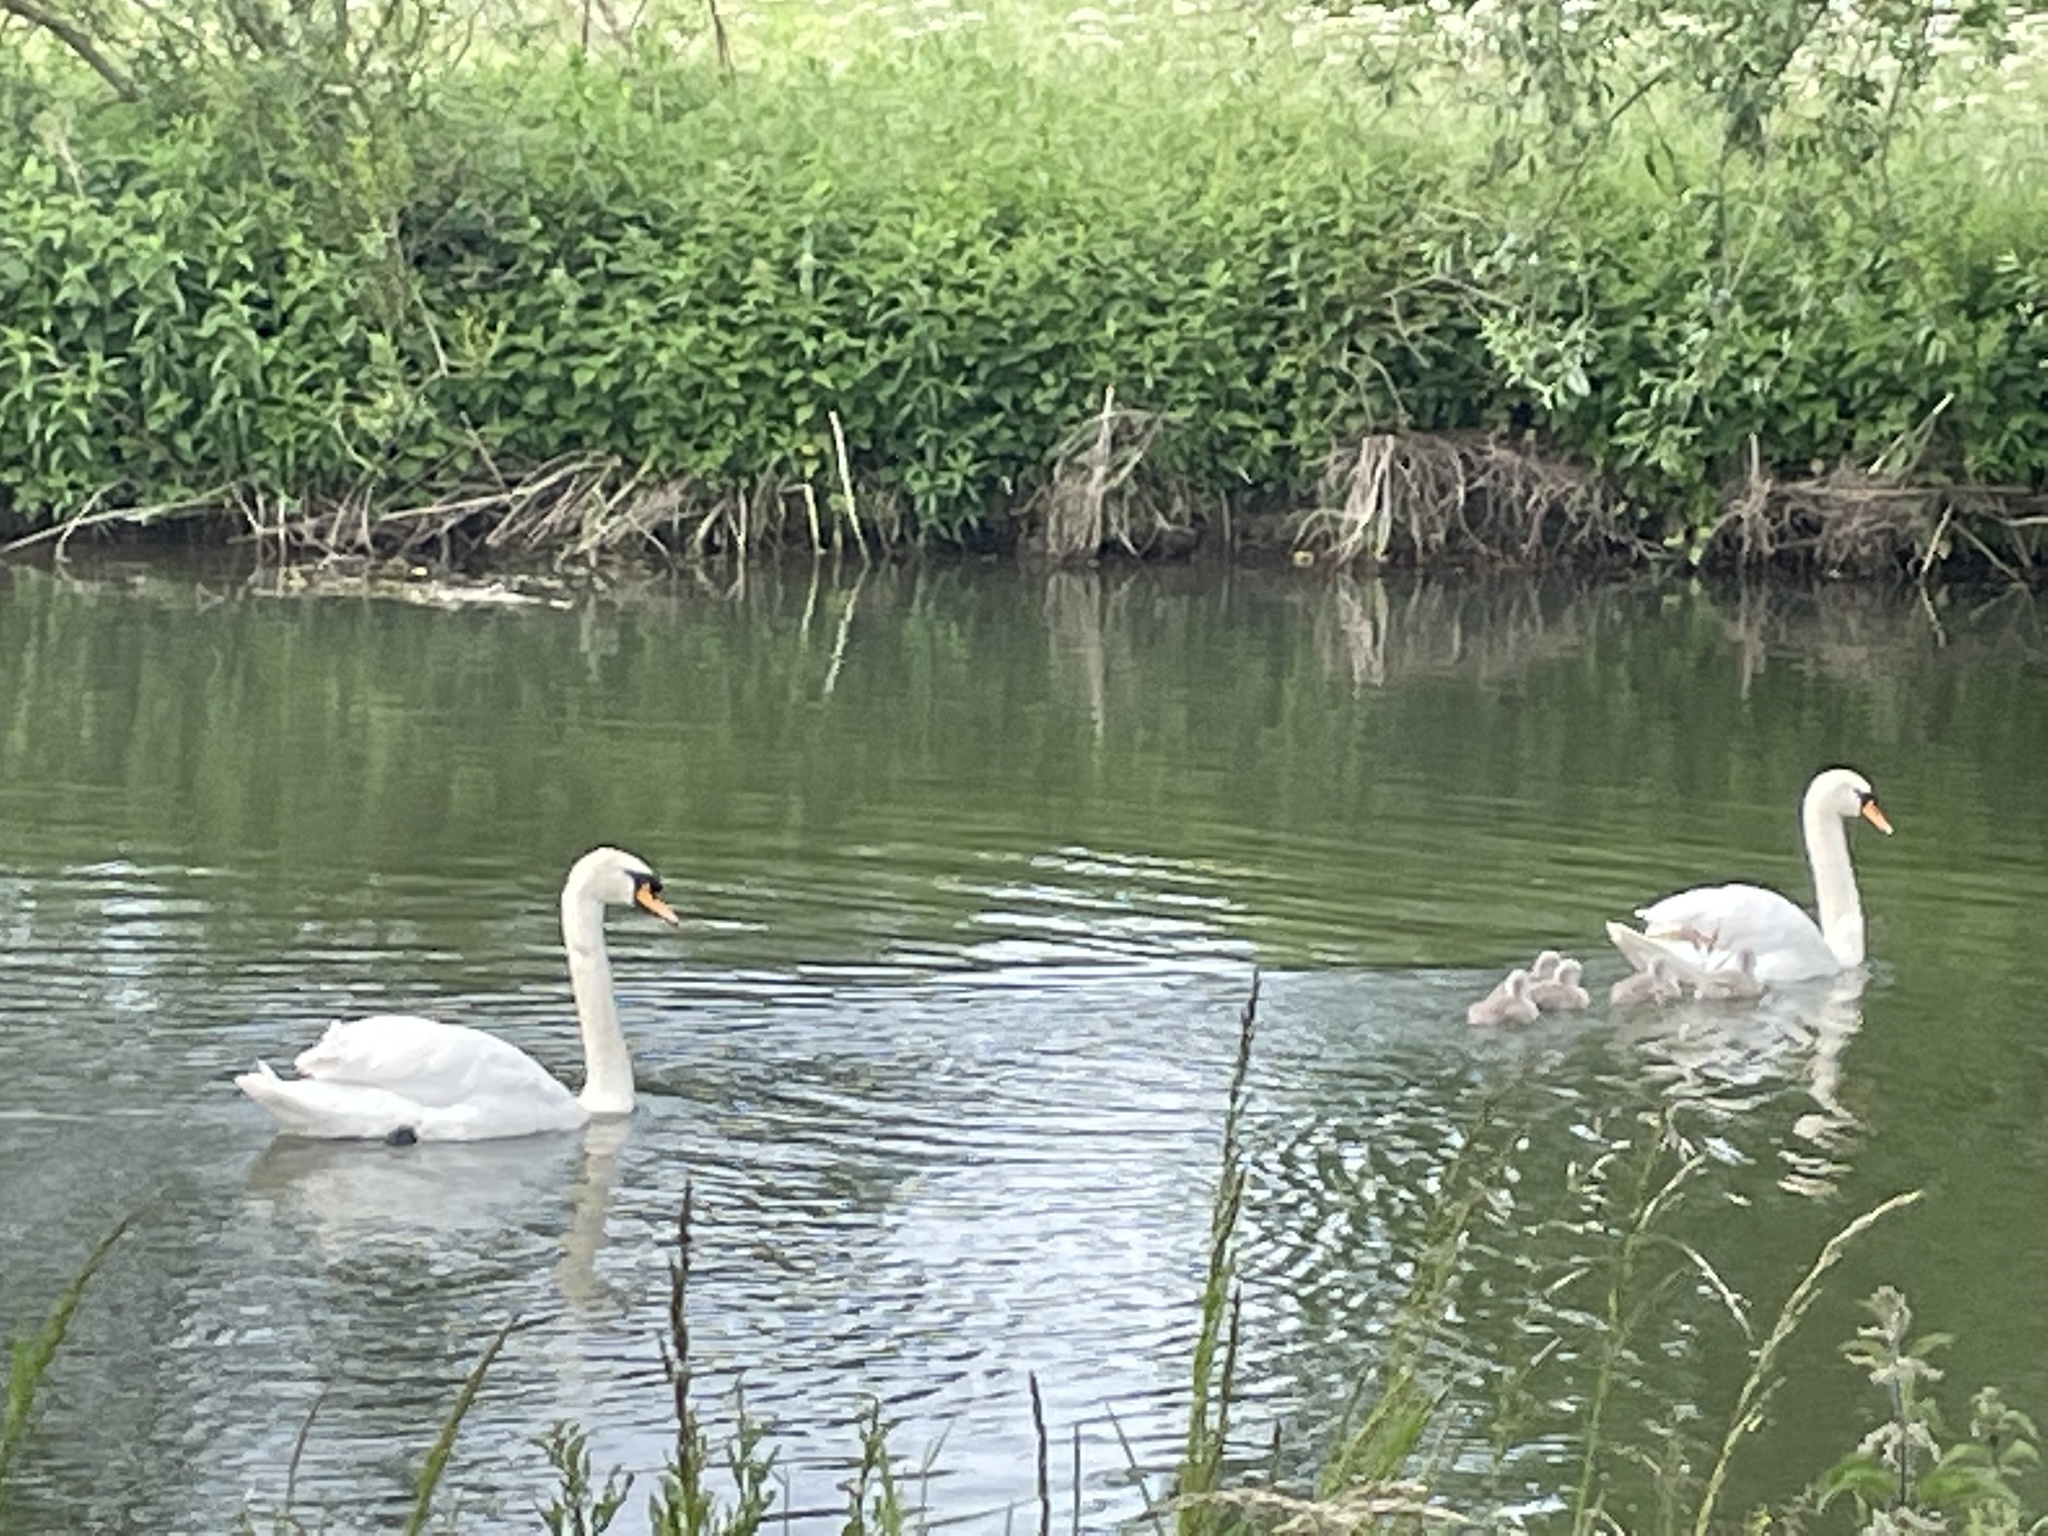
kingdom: Animalia
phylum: Chordata
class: Aves
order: Anseriformes
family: Anatidae
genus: Cygnus
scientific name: Cygnus olor
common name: Mute swan
